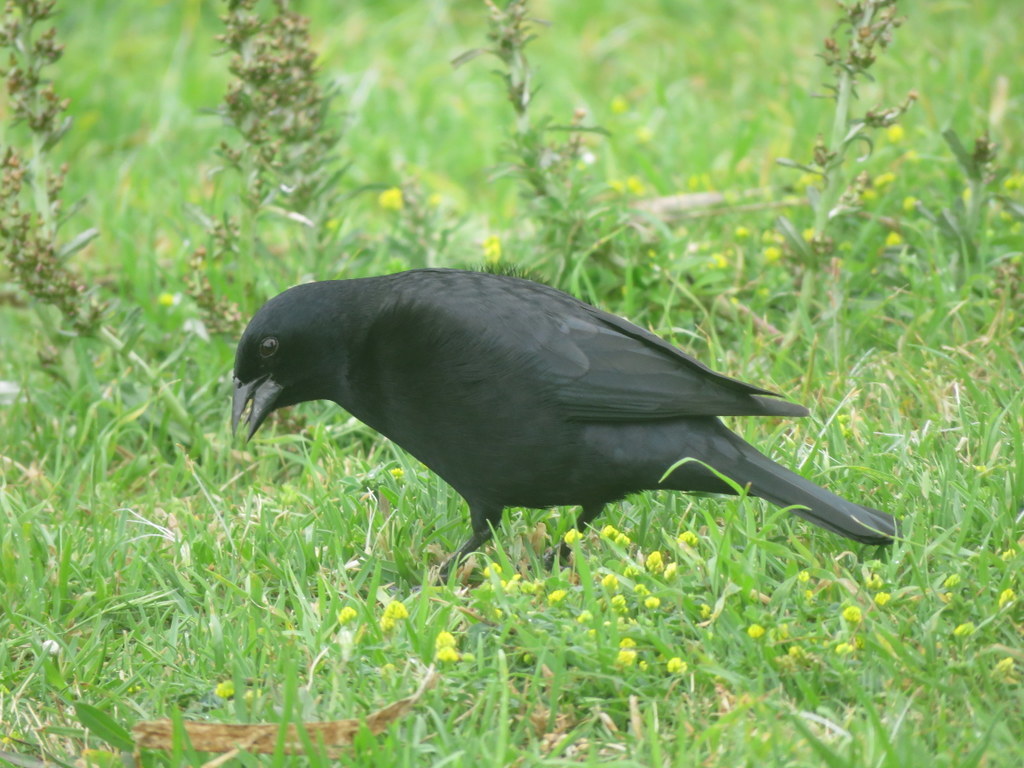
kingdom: Animalia
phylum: Chordata
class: Aves
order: Passeriformes
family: Icteridae
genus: Molothrus
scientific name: Molothrus rufoaxillaris
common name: Screaming cowbird
